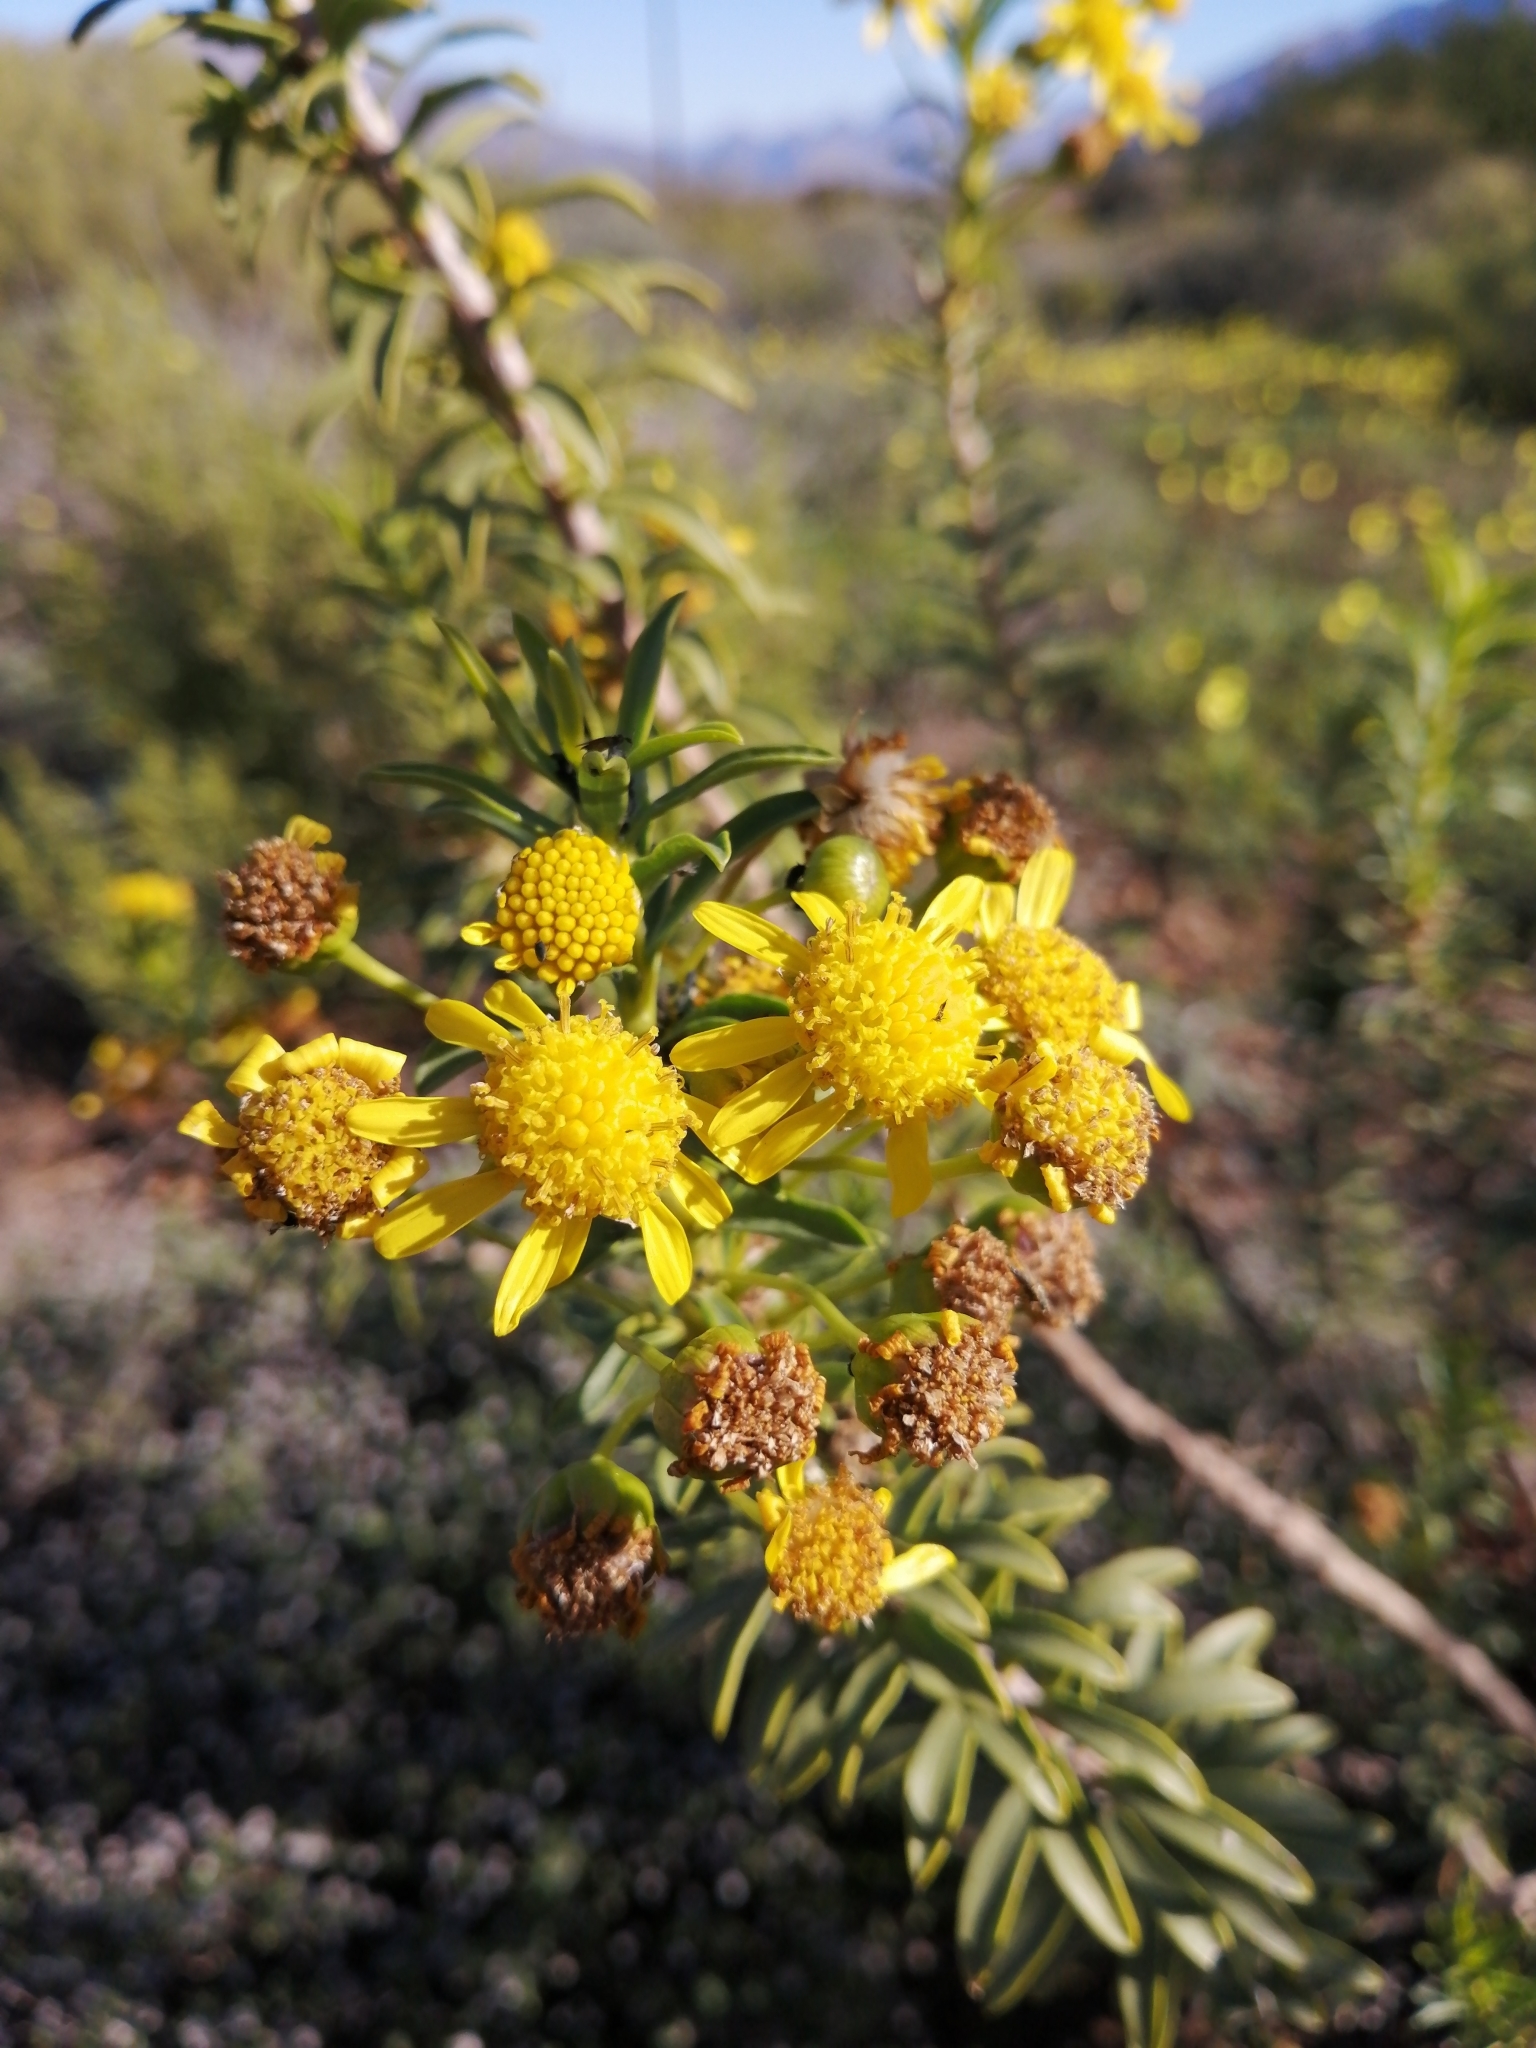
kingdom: Plantae
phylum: Tracheophyta
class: Magnoliopsida
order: Asterales
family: Asteraceae
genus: Euryops
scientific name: Euryops lateriflorus
